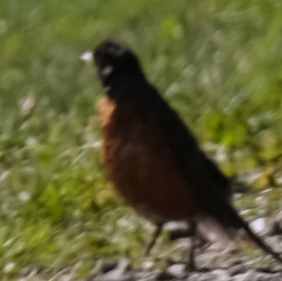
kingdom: Animalia
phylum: Chordata
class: Aves
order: Passeriformes
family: Turdidae
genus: Turdus
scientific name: Turdus migratorius
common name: American robin
